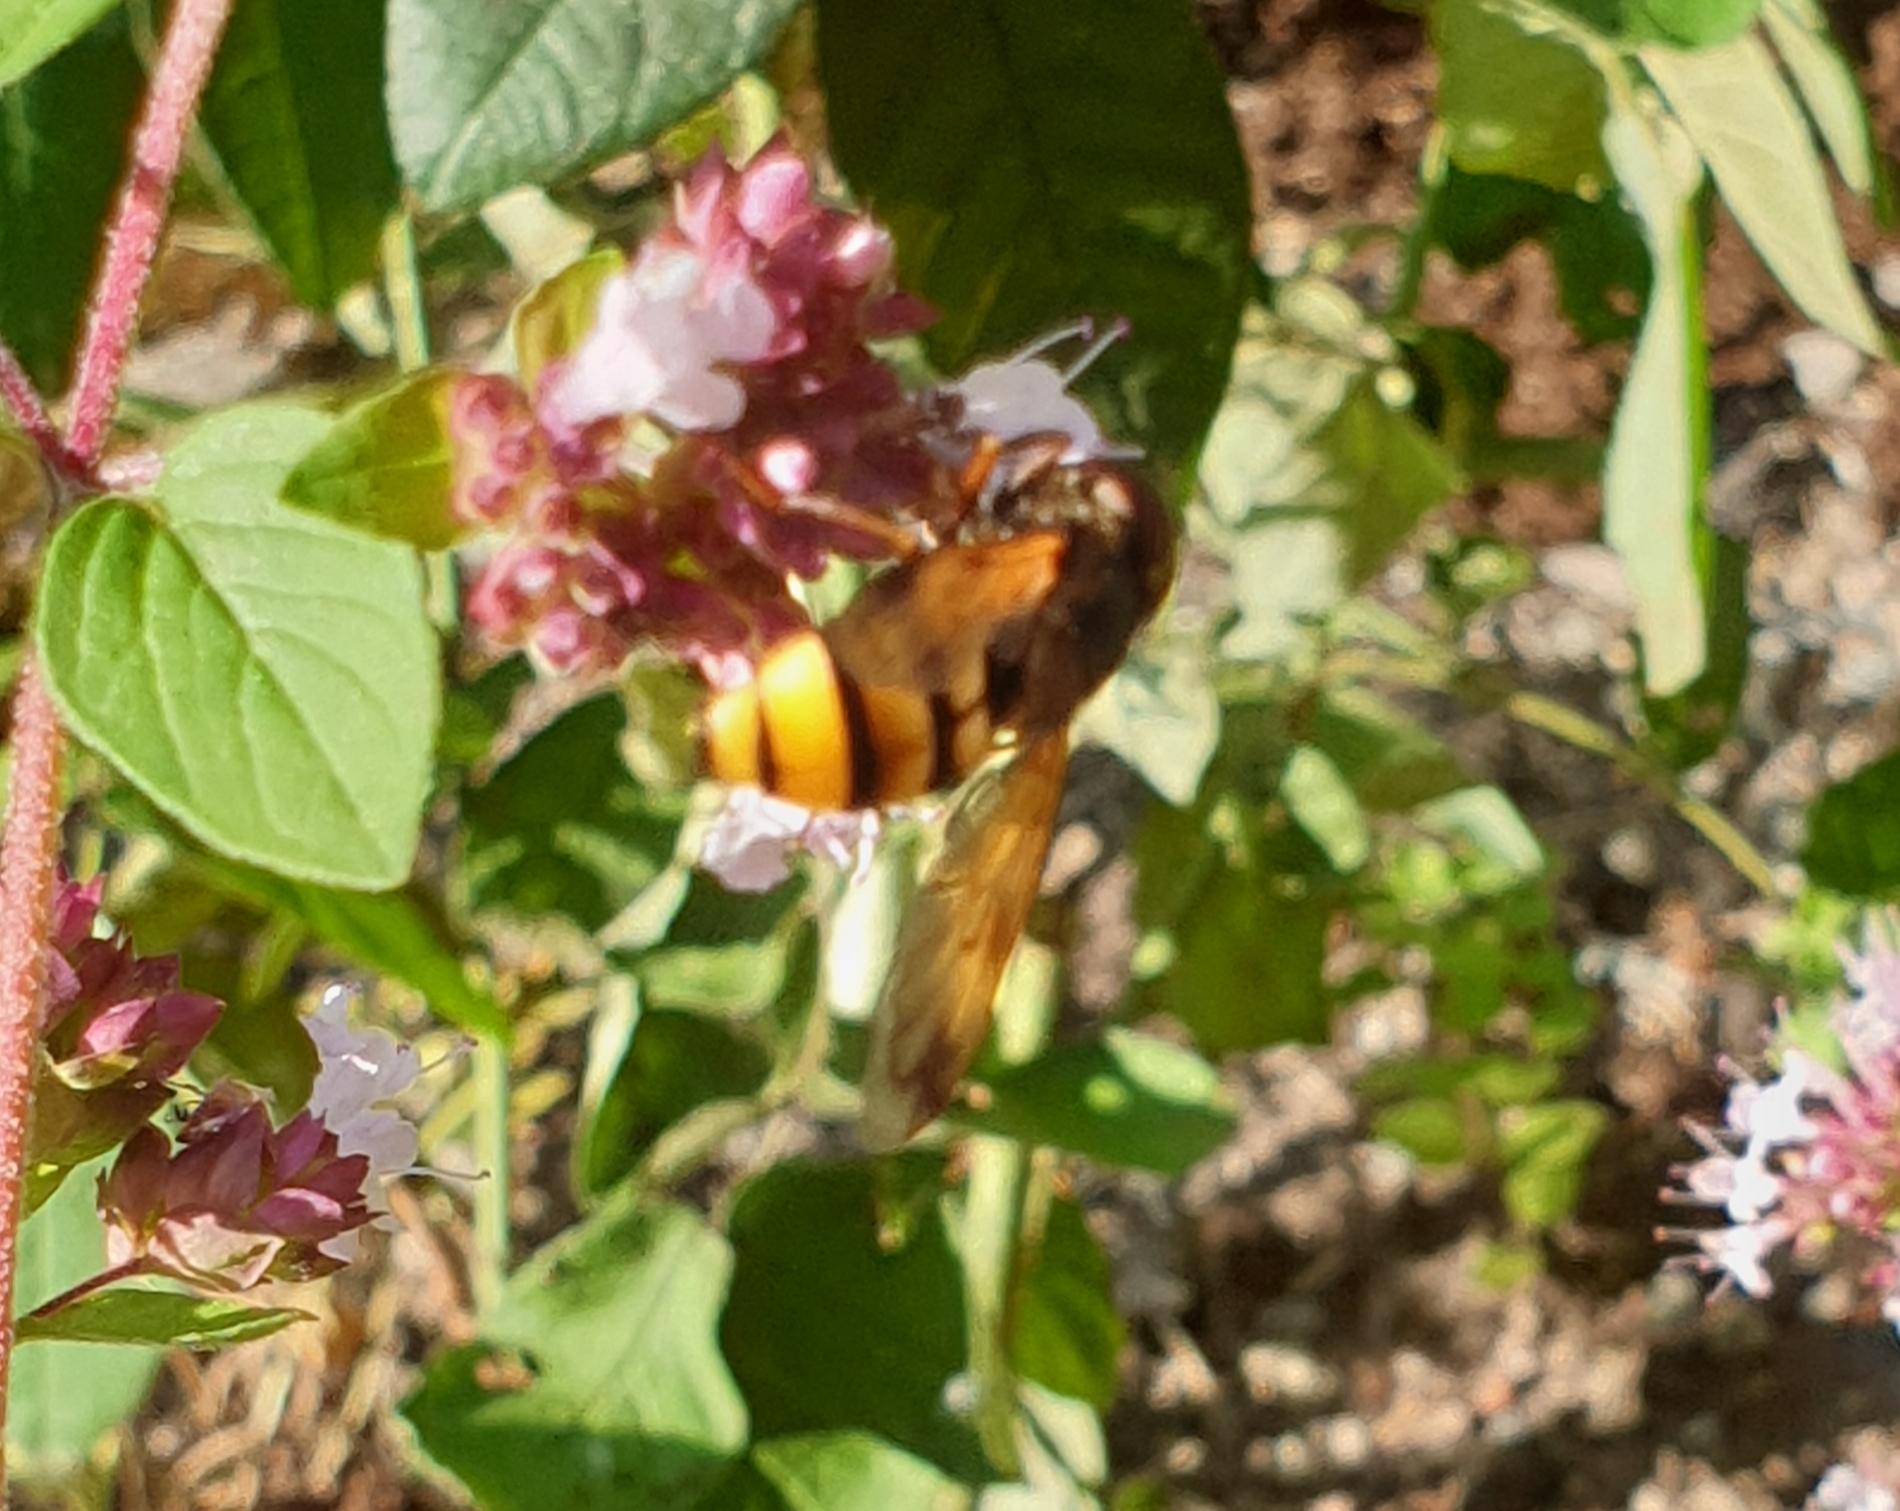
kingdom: Animalia
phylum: Arthropoda
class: Insecta
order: Diptera
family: Syrphidae
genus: Volucella
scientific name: Volucella inanis
